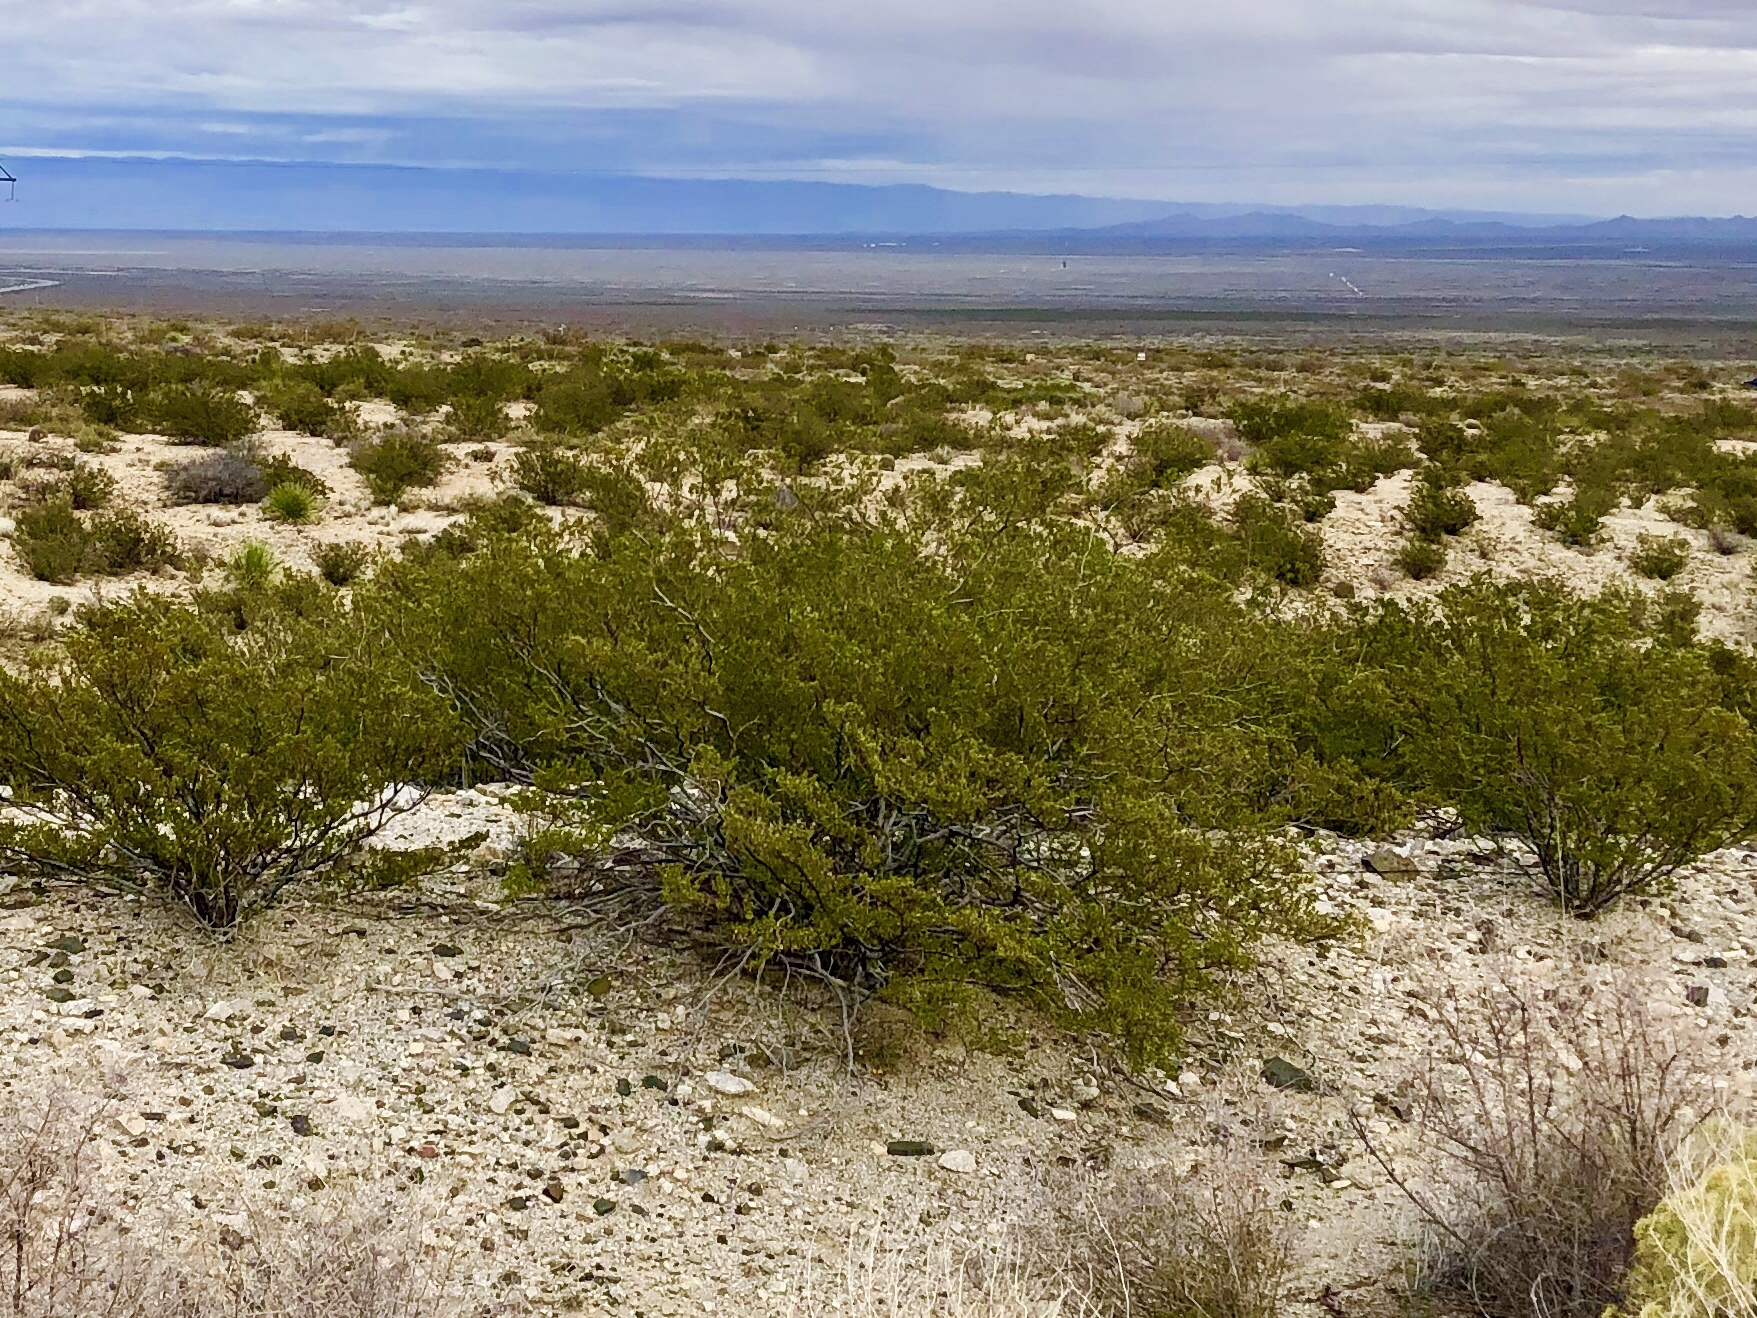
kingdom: Plantae
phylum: Tracheophyta
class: Magnoliopsida
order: Zygophyllales
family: Zygophyllaceae
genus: Larrea
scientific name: Larrea tridentata
